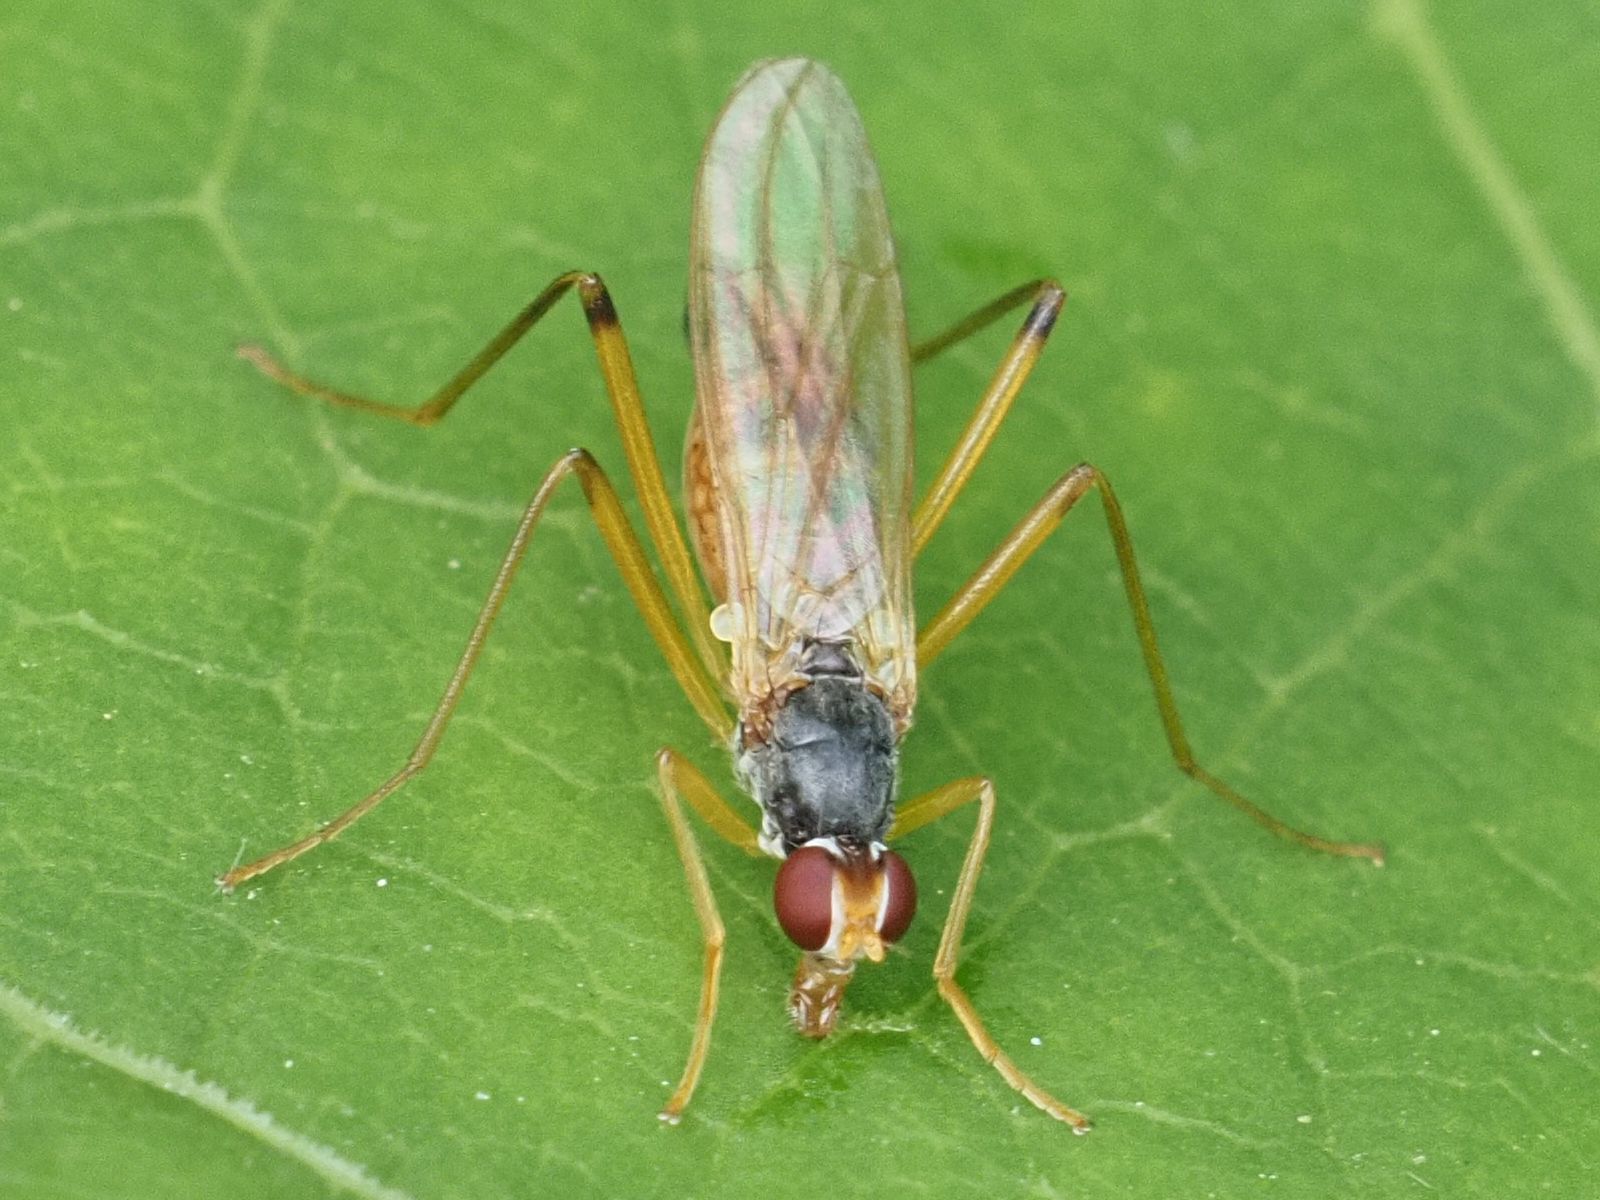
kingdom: Animalia
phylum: Arthropoda
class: Insecta
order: Diptera
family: Micropezidae
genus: Compsobata
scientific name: Compsobata nigricornis
